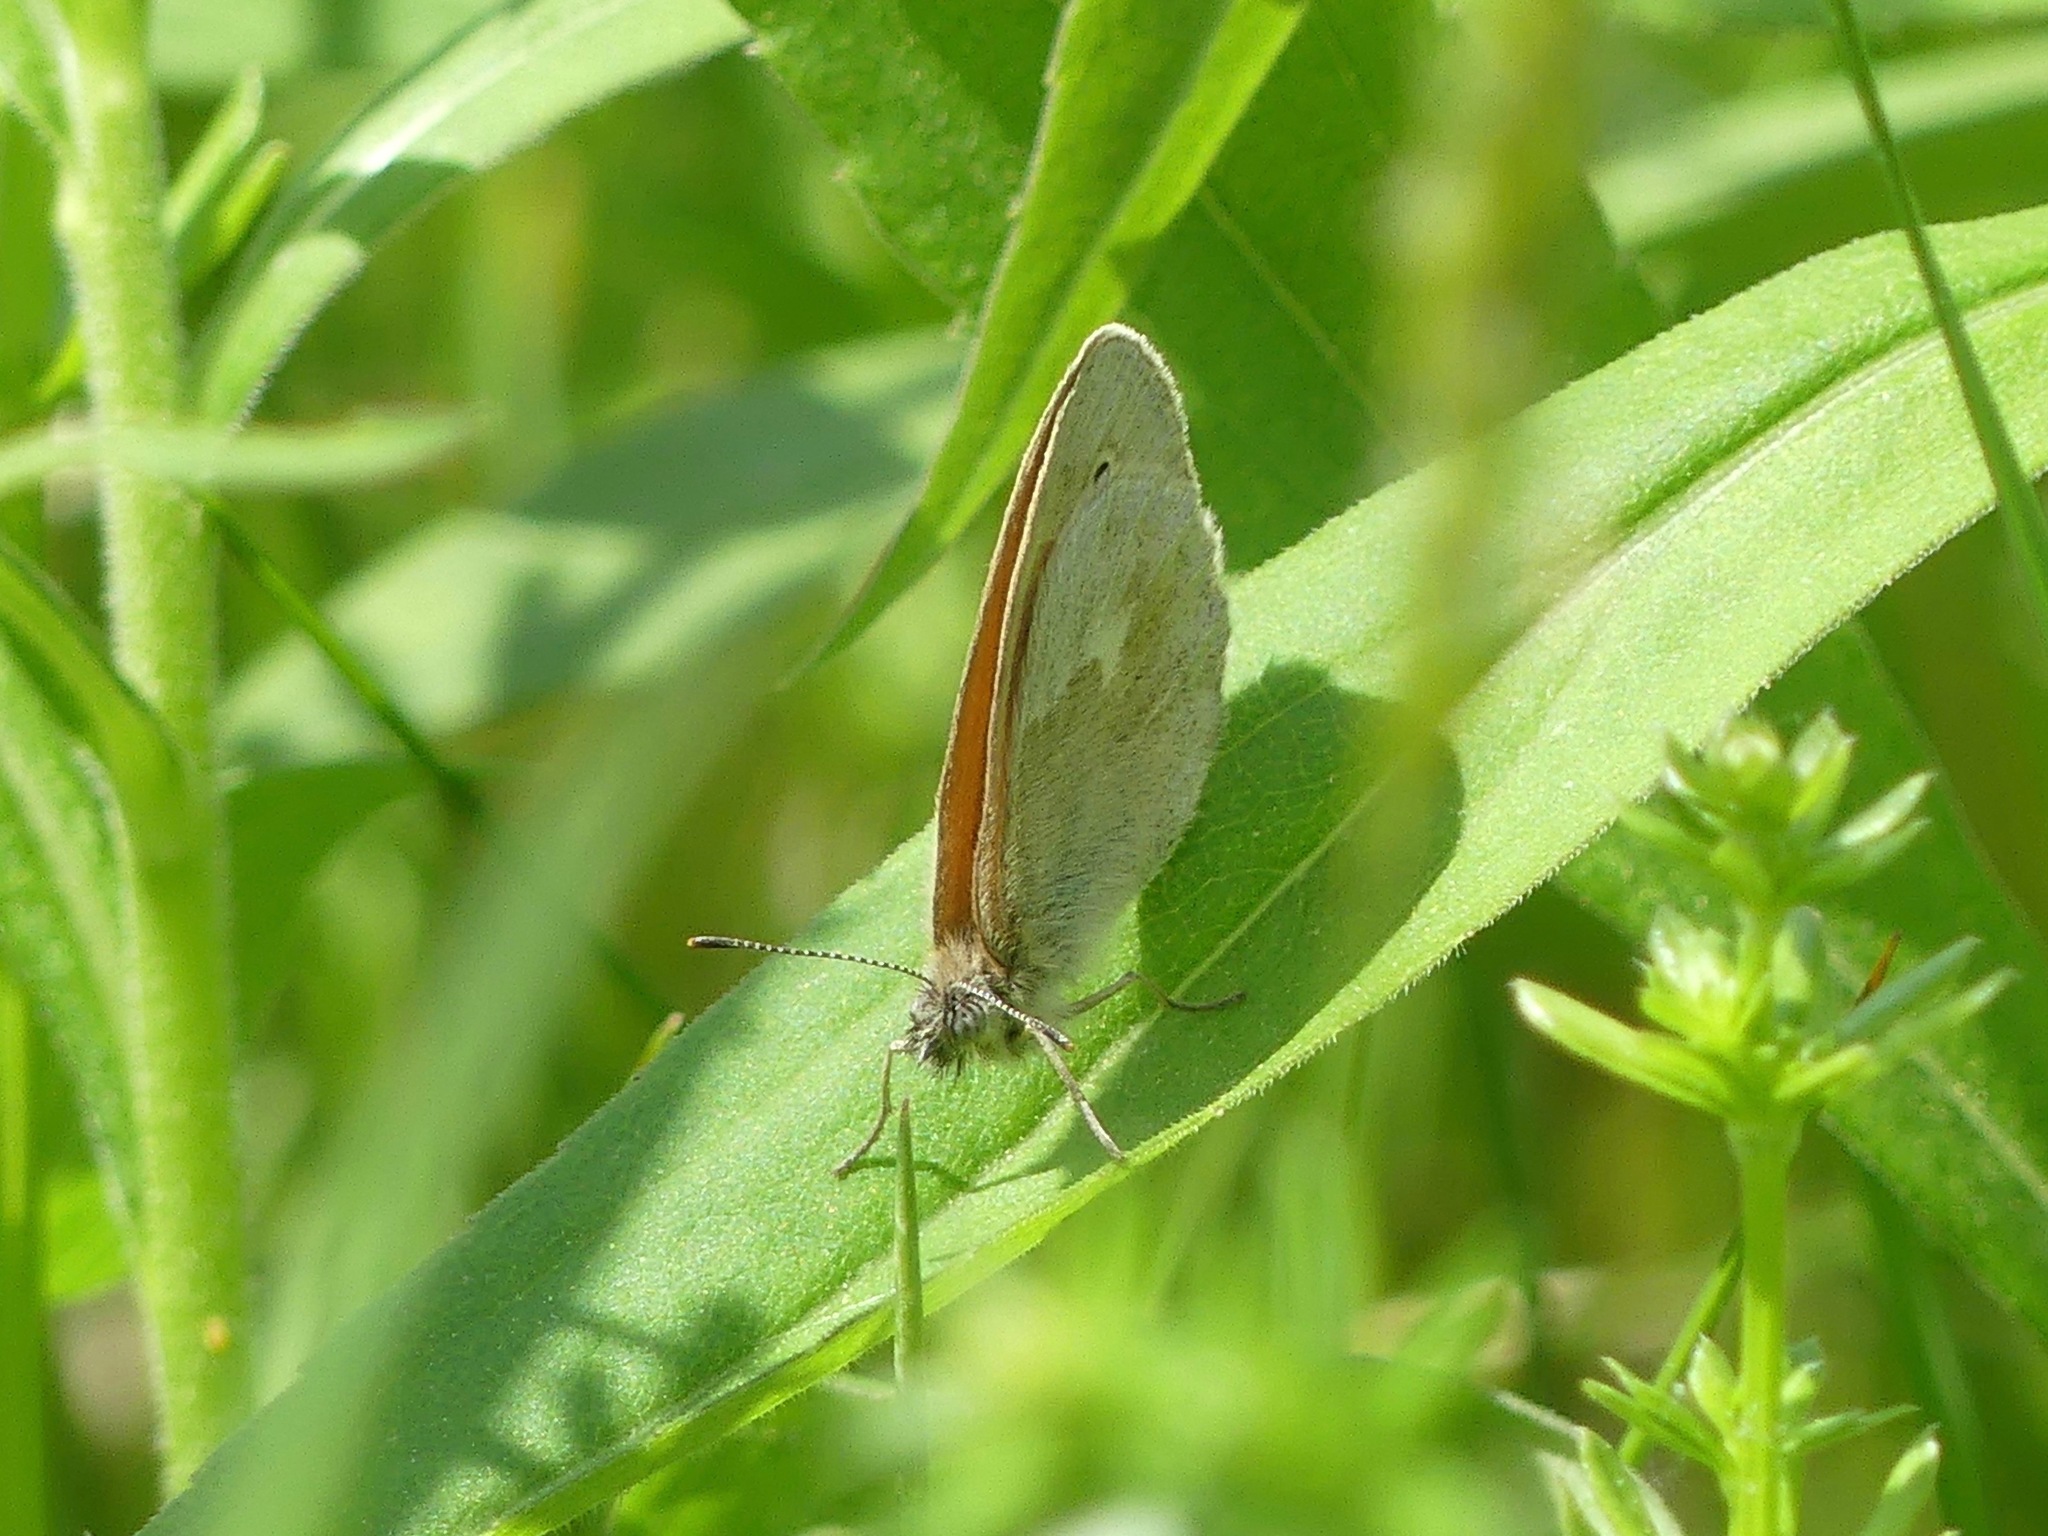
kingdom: Animalia
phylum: Arthropoda
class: Insecta
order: Lepidoptera
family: Nymphalidae
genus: Coenonympha
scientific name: Coenonympha california
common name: Common ringlet
